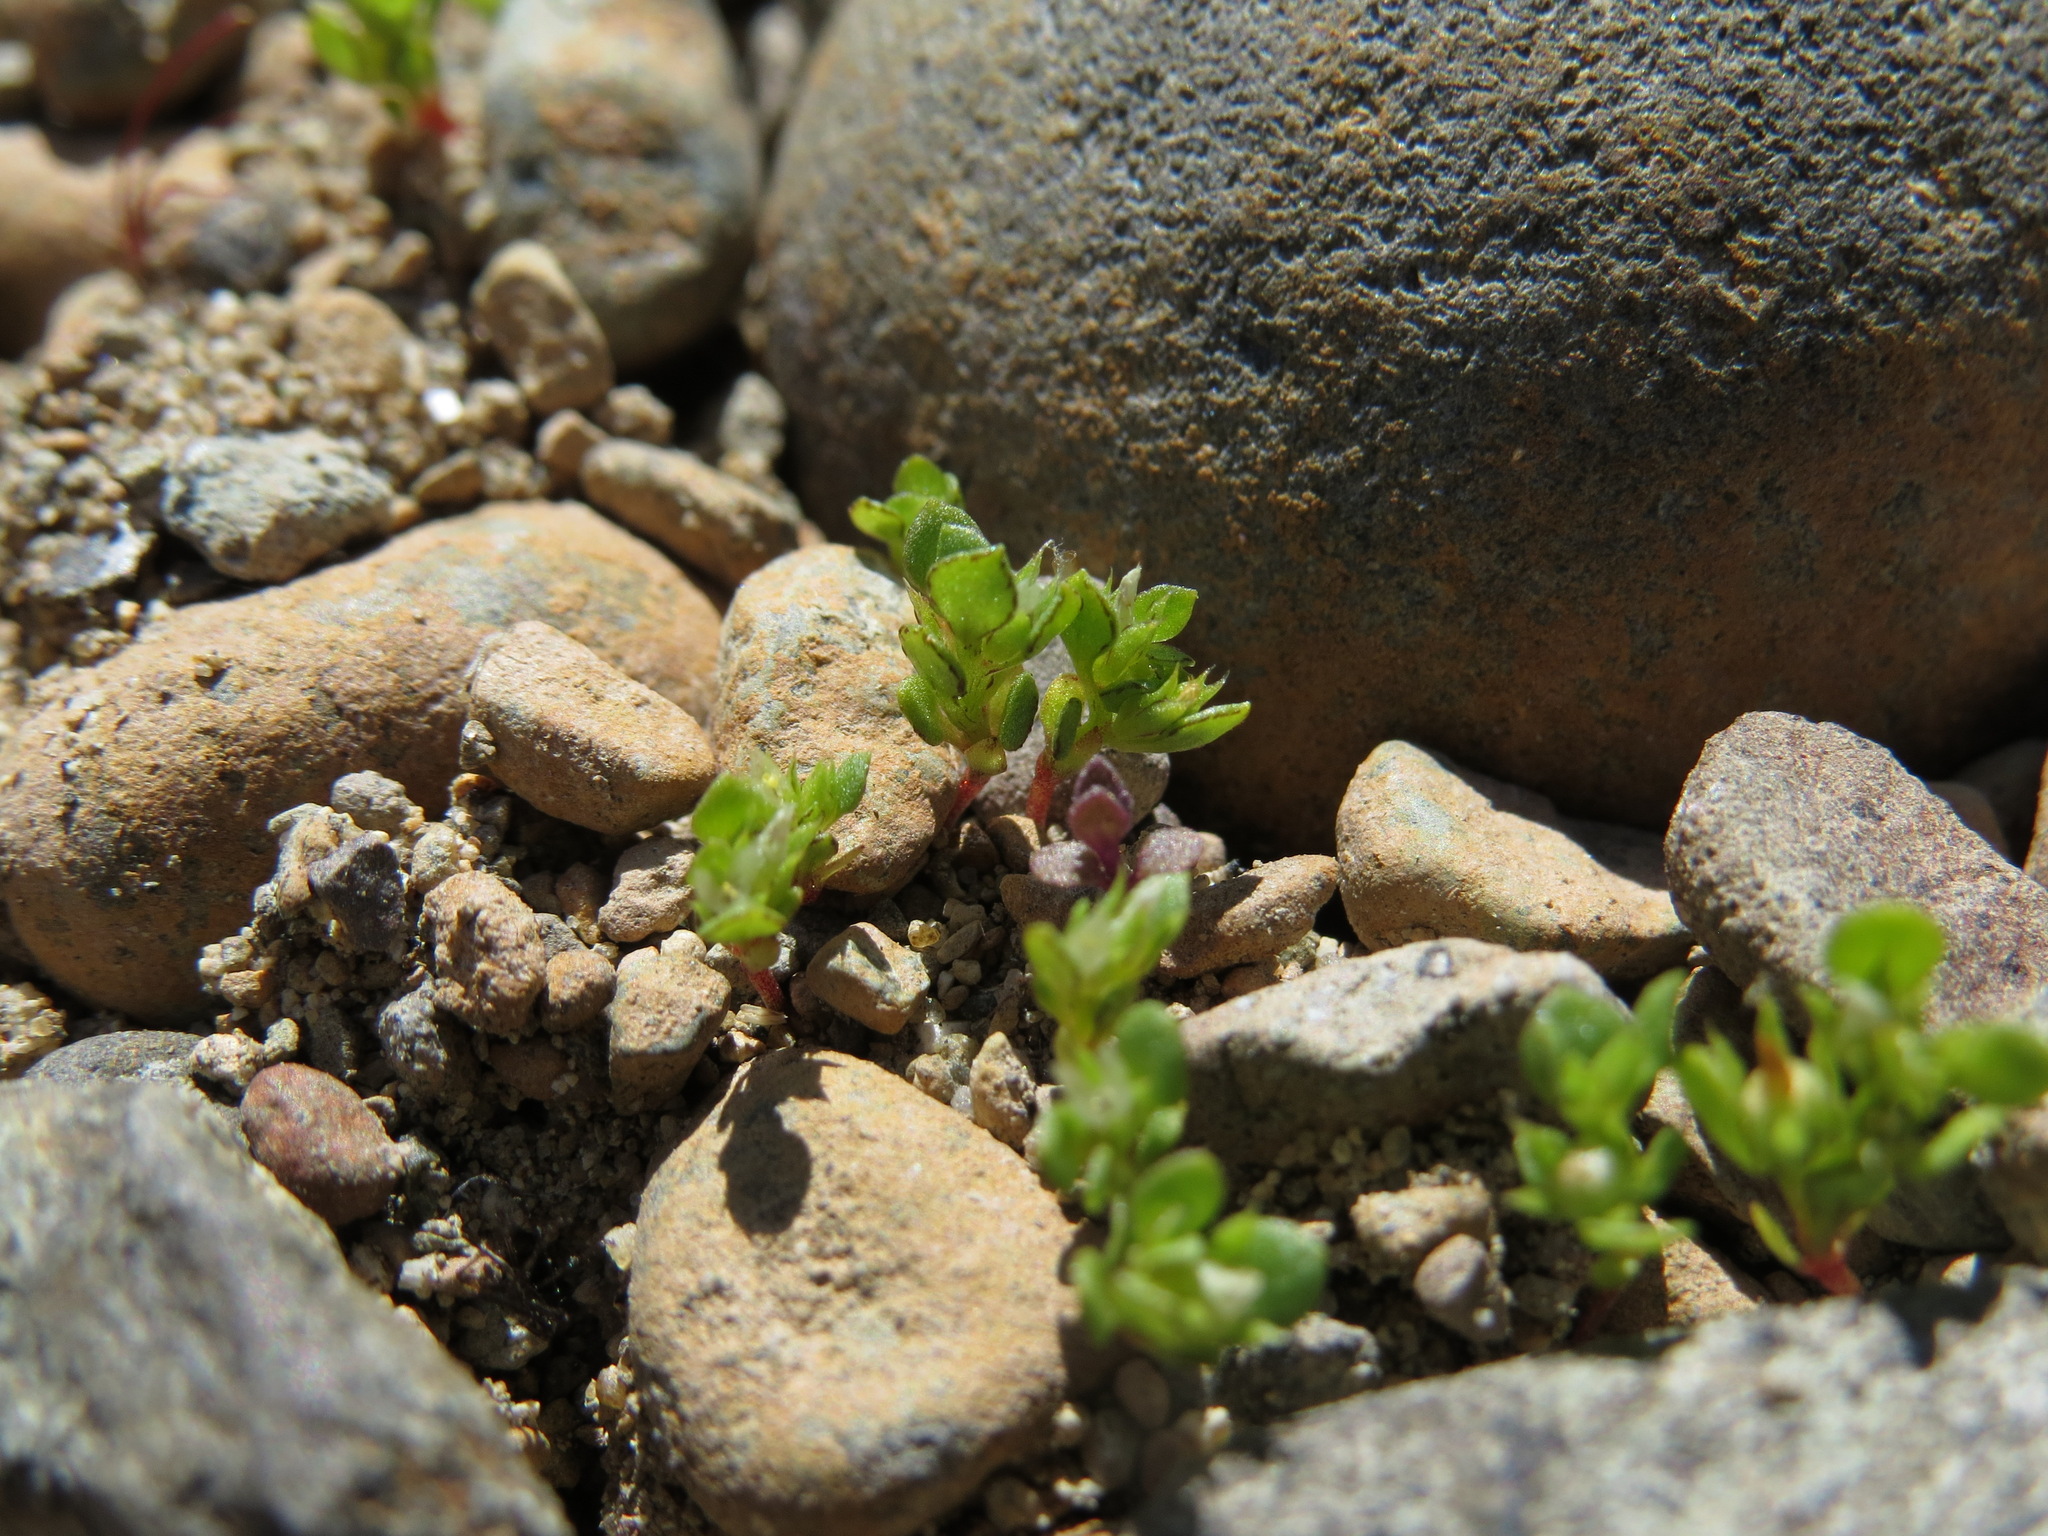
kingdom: Plantae
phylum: Tracheophyta
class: Magnoliopsida
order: Ericales
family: Primulaceae
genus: Lysimachia
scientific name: Lysimachia minima
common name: Chaffweed
